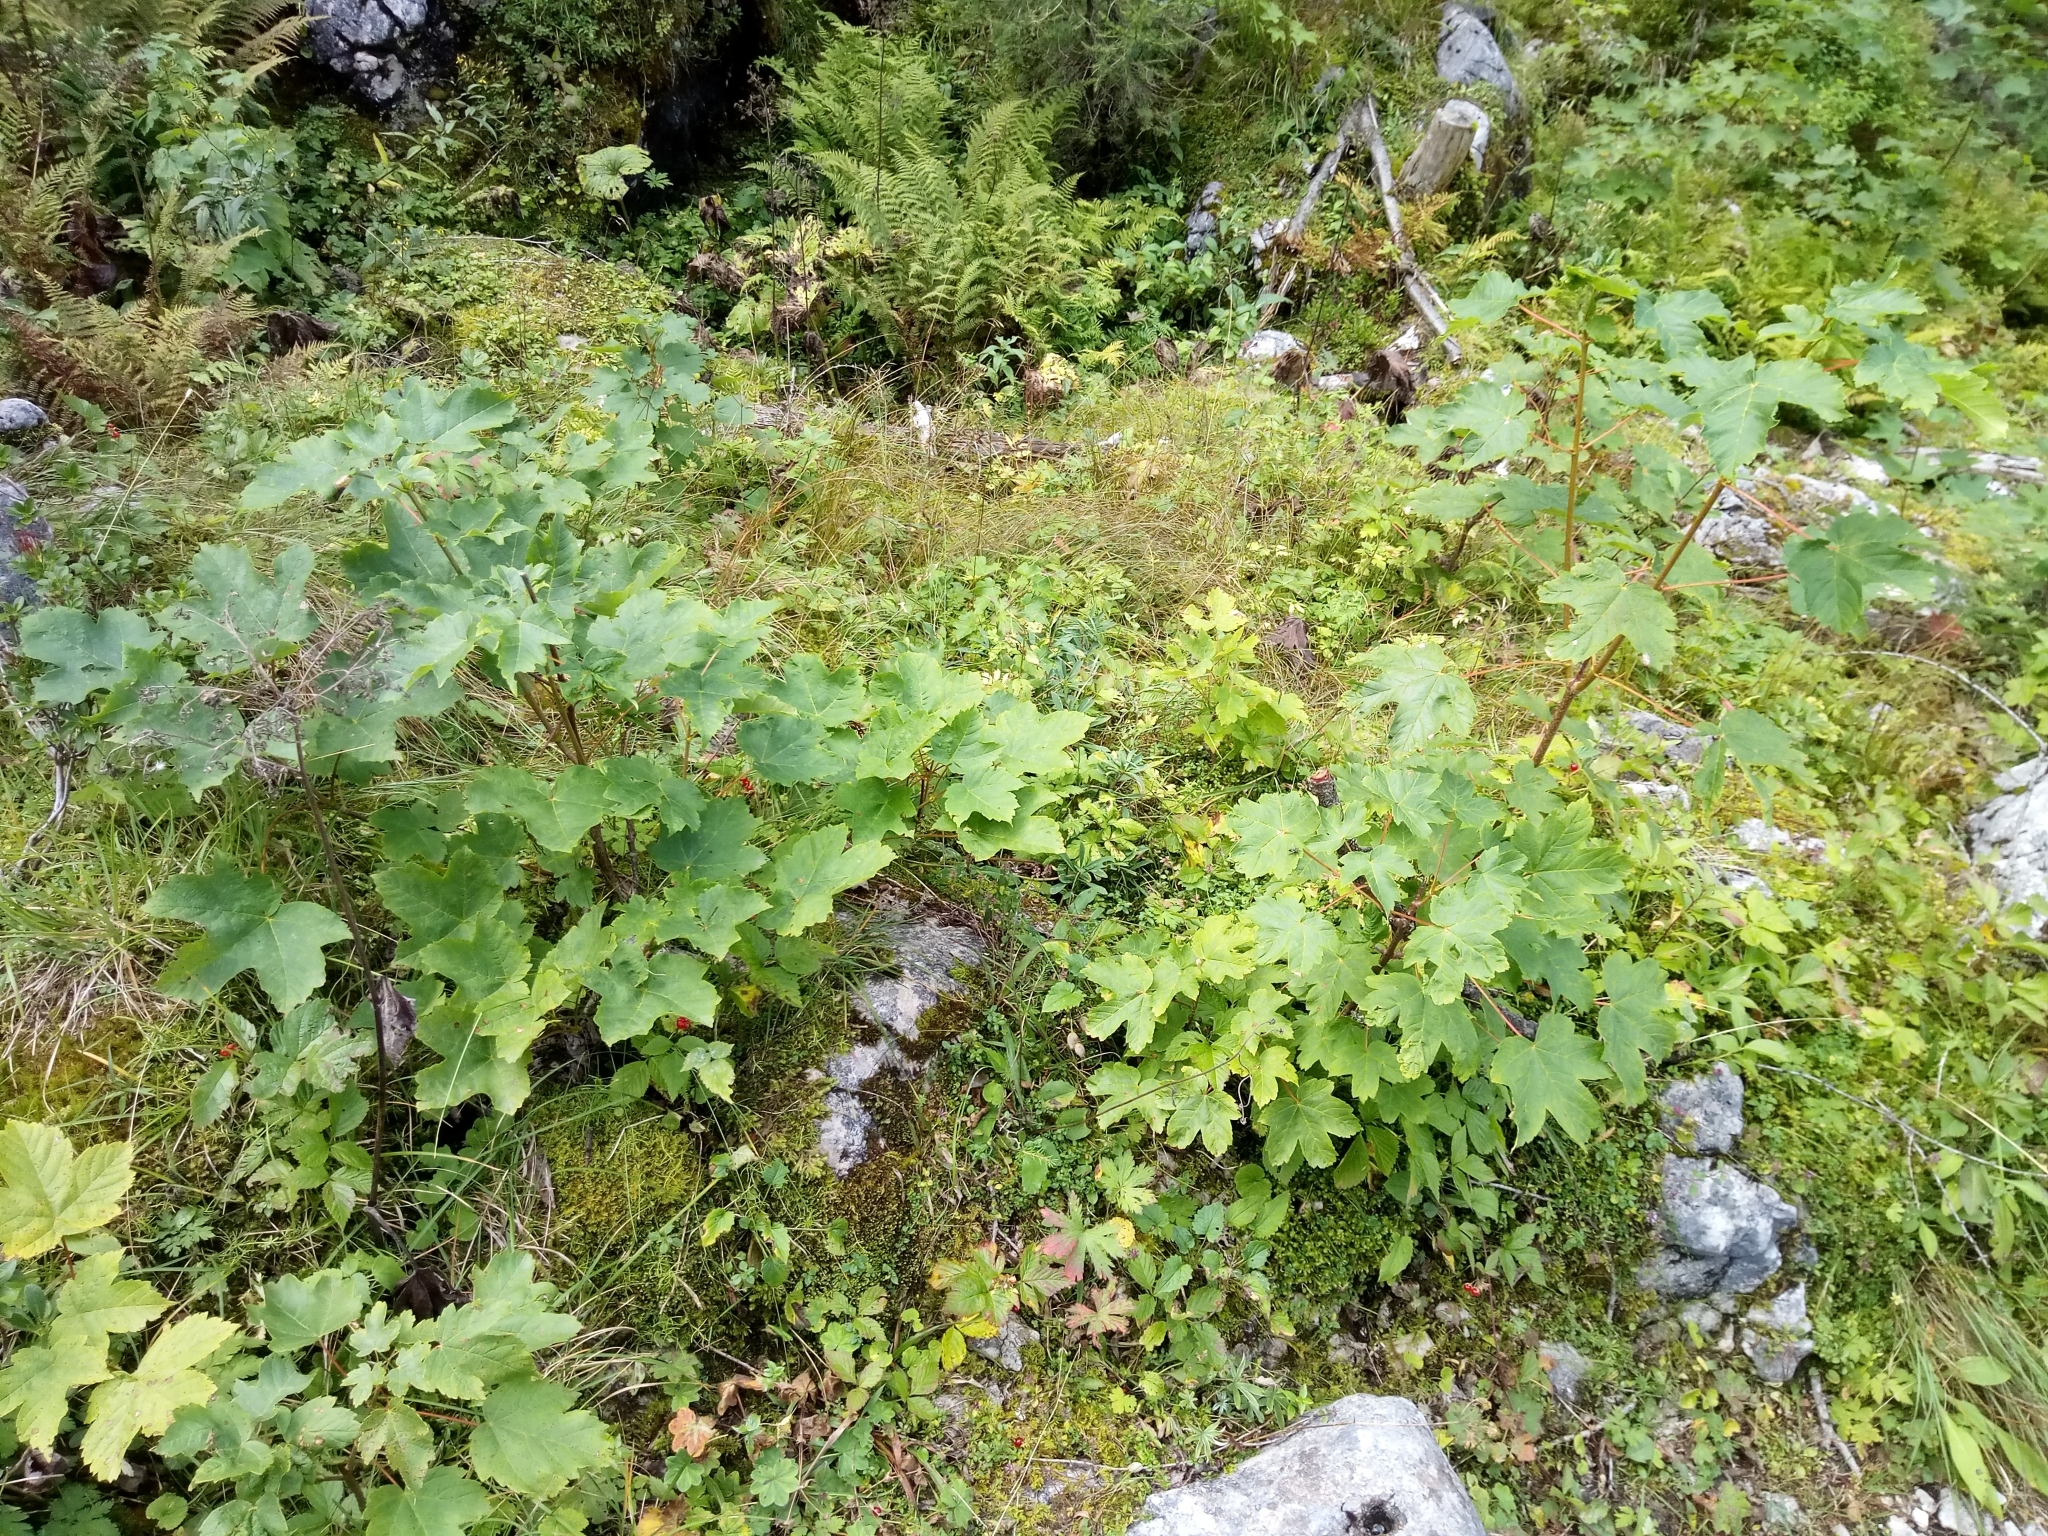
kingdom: Plantae
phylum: Tracheophyta
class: Magnoliopsida
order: Sapindales
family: Sapindaceae
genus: Acer
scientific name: Acer pseudoplatanus
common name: Sycamore
